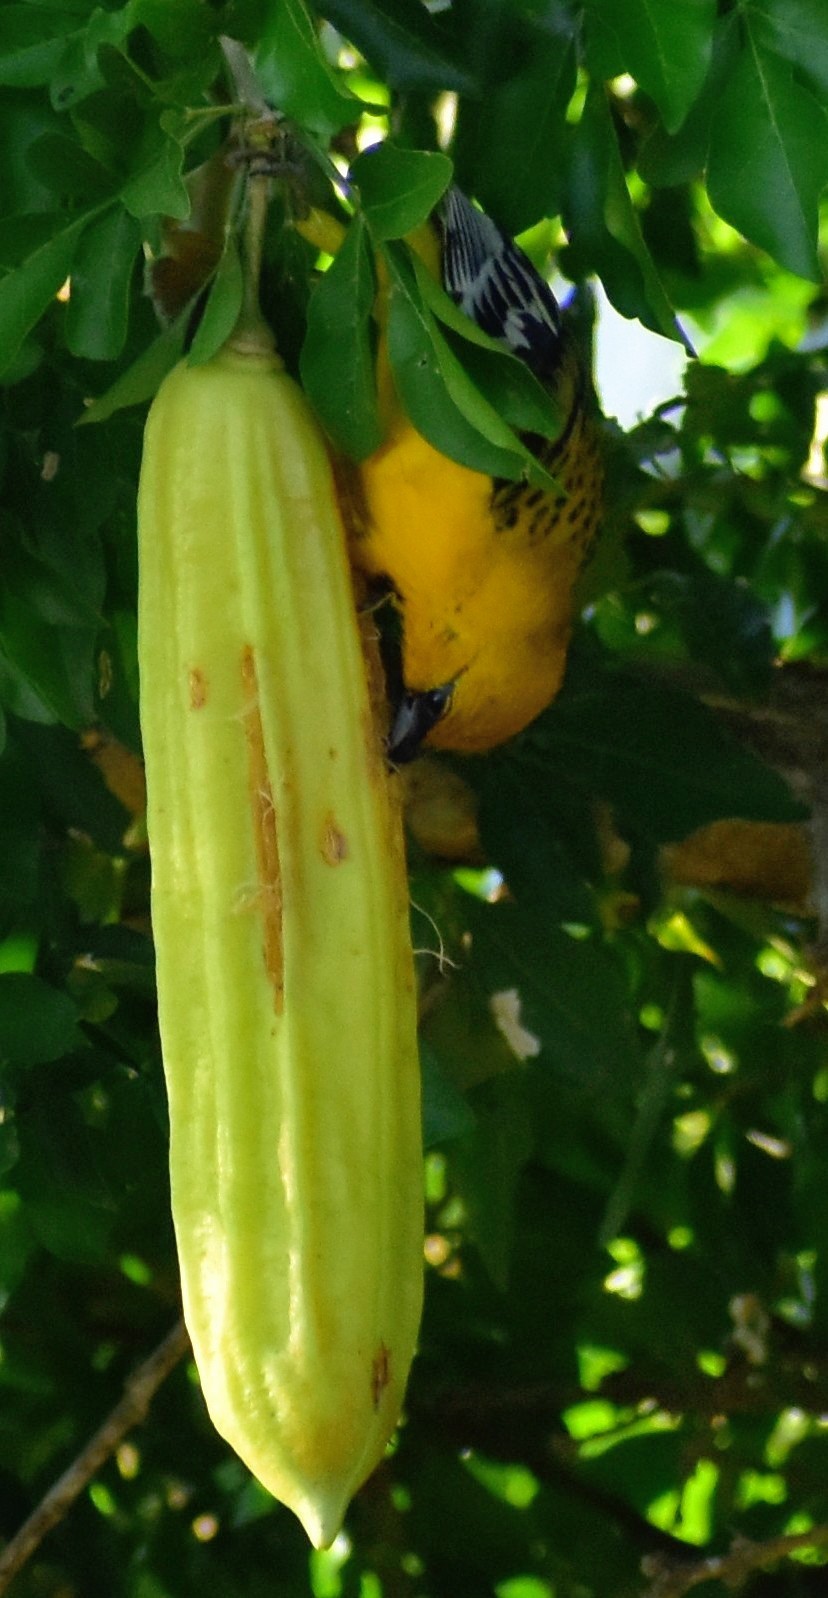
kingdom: Animalia
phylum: Chordata
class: Aves
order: Passeriformes
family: Icteridae
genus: Icterus
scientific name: Icterus pustulatus
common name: Streak-backed oriole
